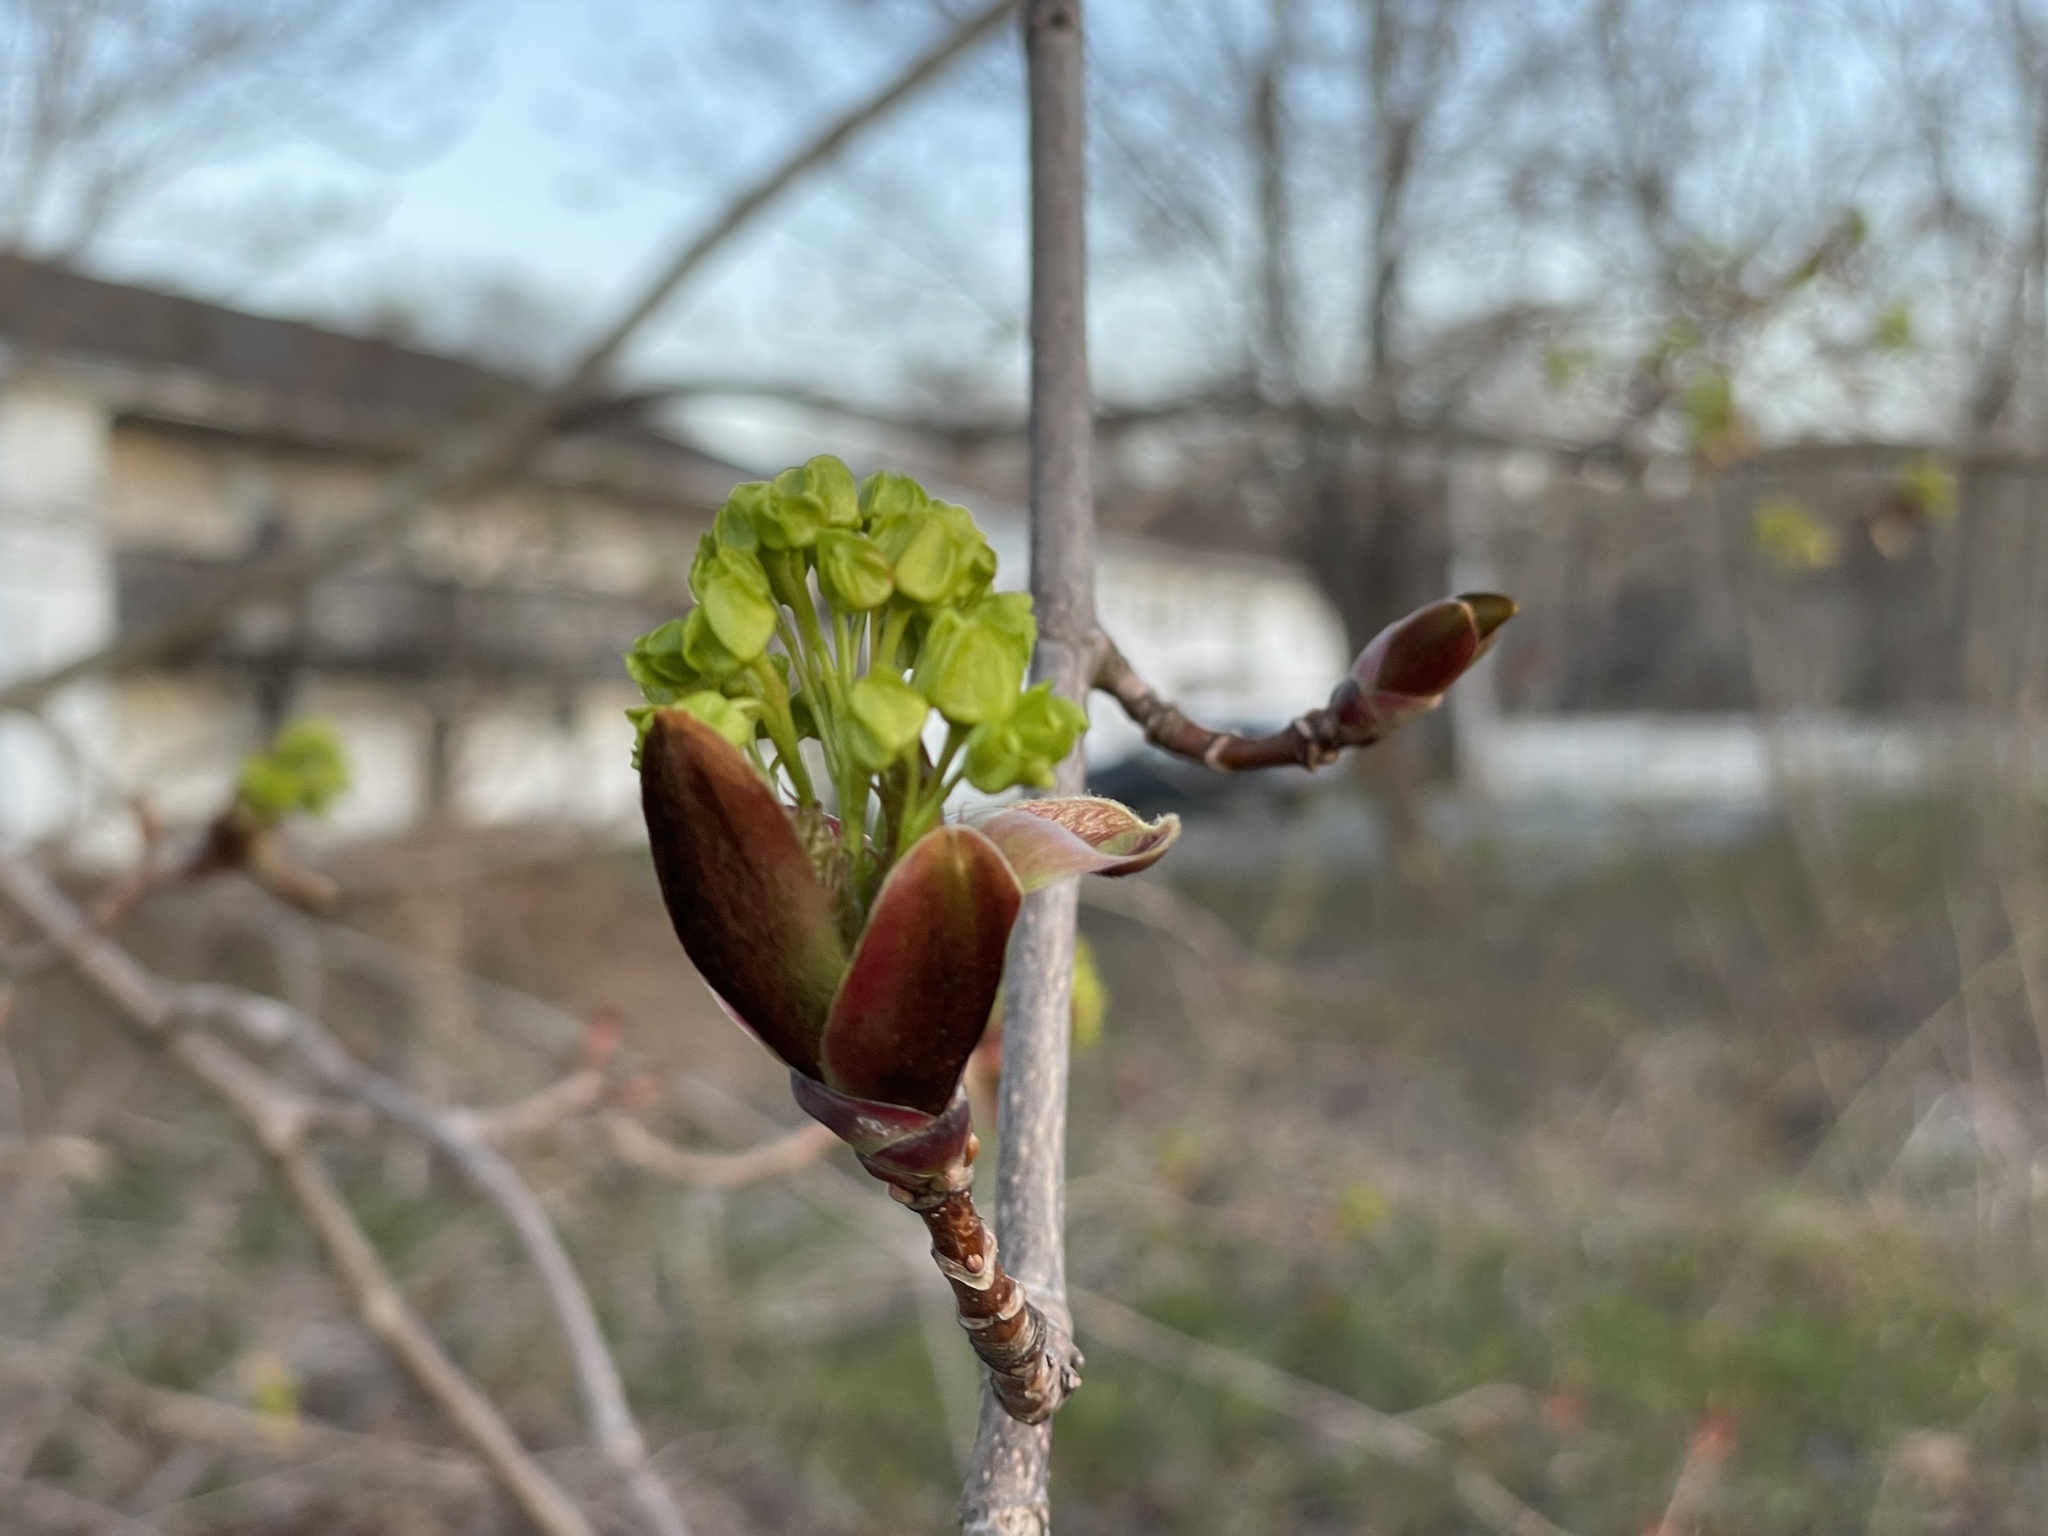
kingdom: Plantae
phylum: Tracheophyta
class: Magnoliopsida
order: Sapindales
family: Sapindaceae
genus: Acer
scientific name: Acer platanoides
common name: Norway maple
